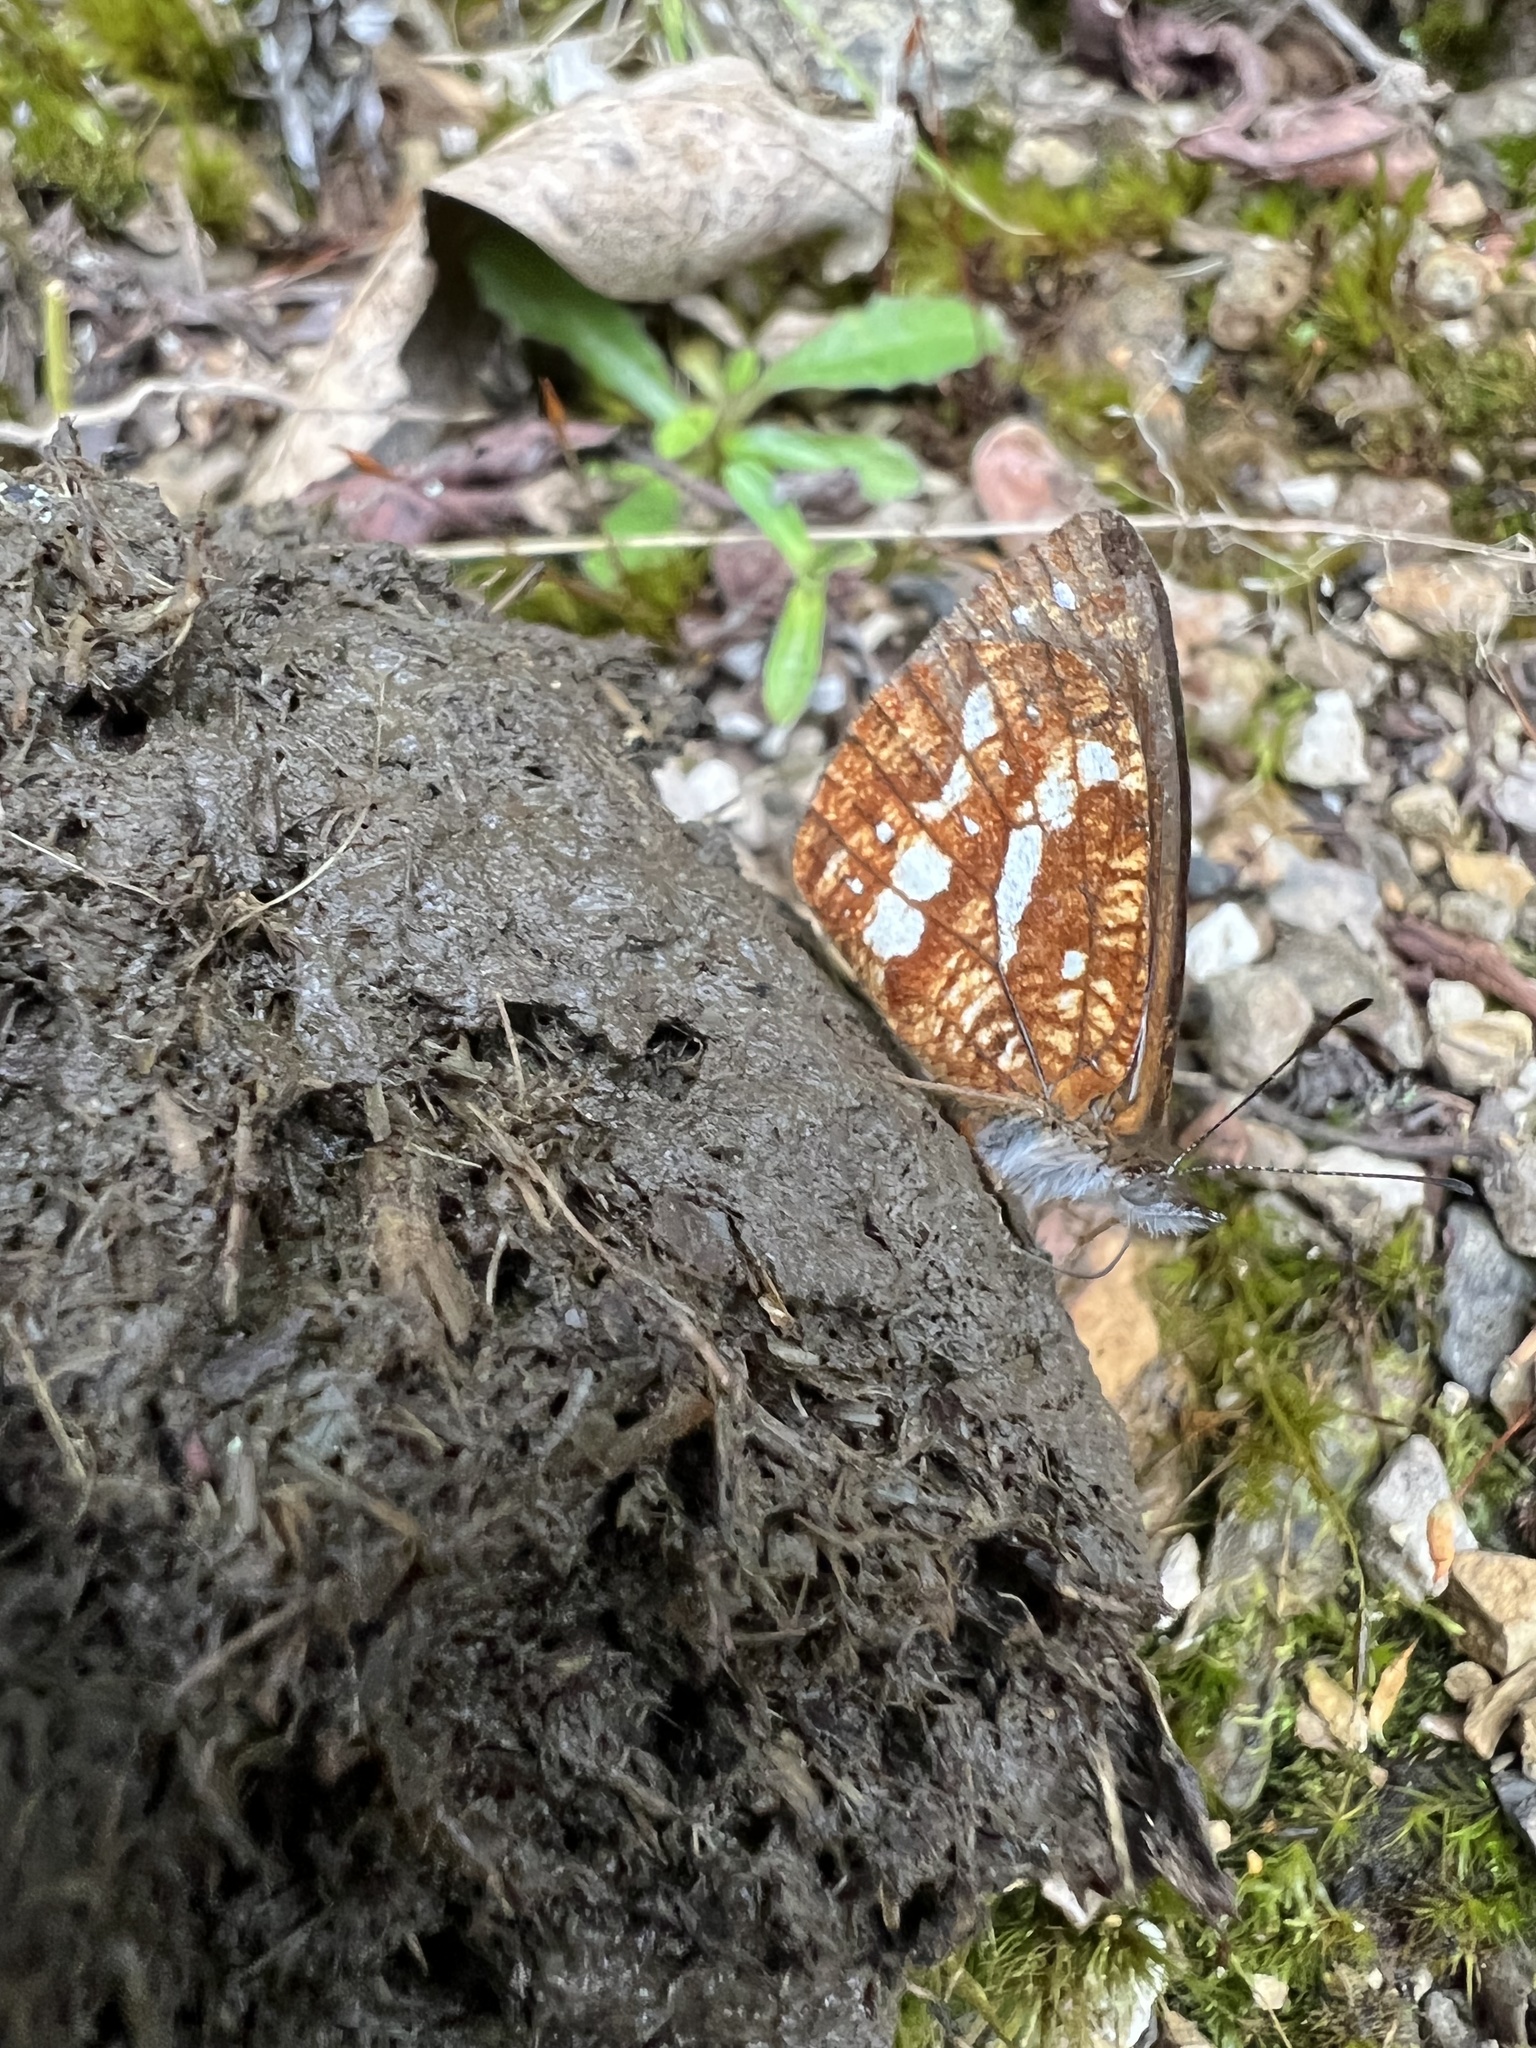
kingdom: Animalia
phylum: Arthropoda
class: Insecta
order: Lepidoptera
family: Nymphalidae
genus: Lymanopoda
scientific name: Lymanopoda labda
